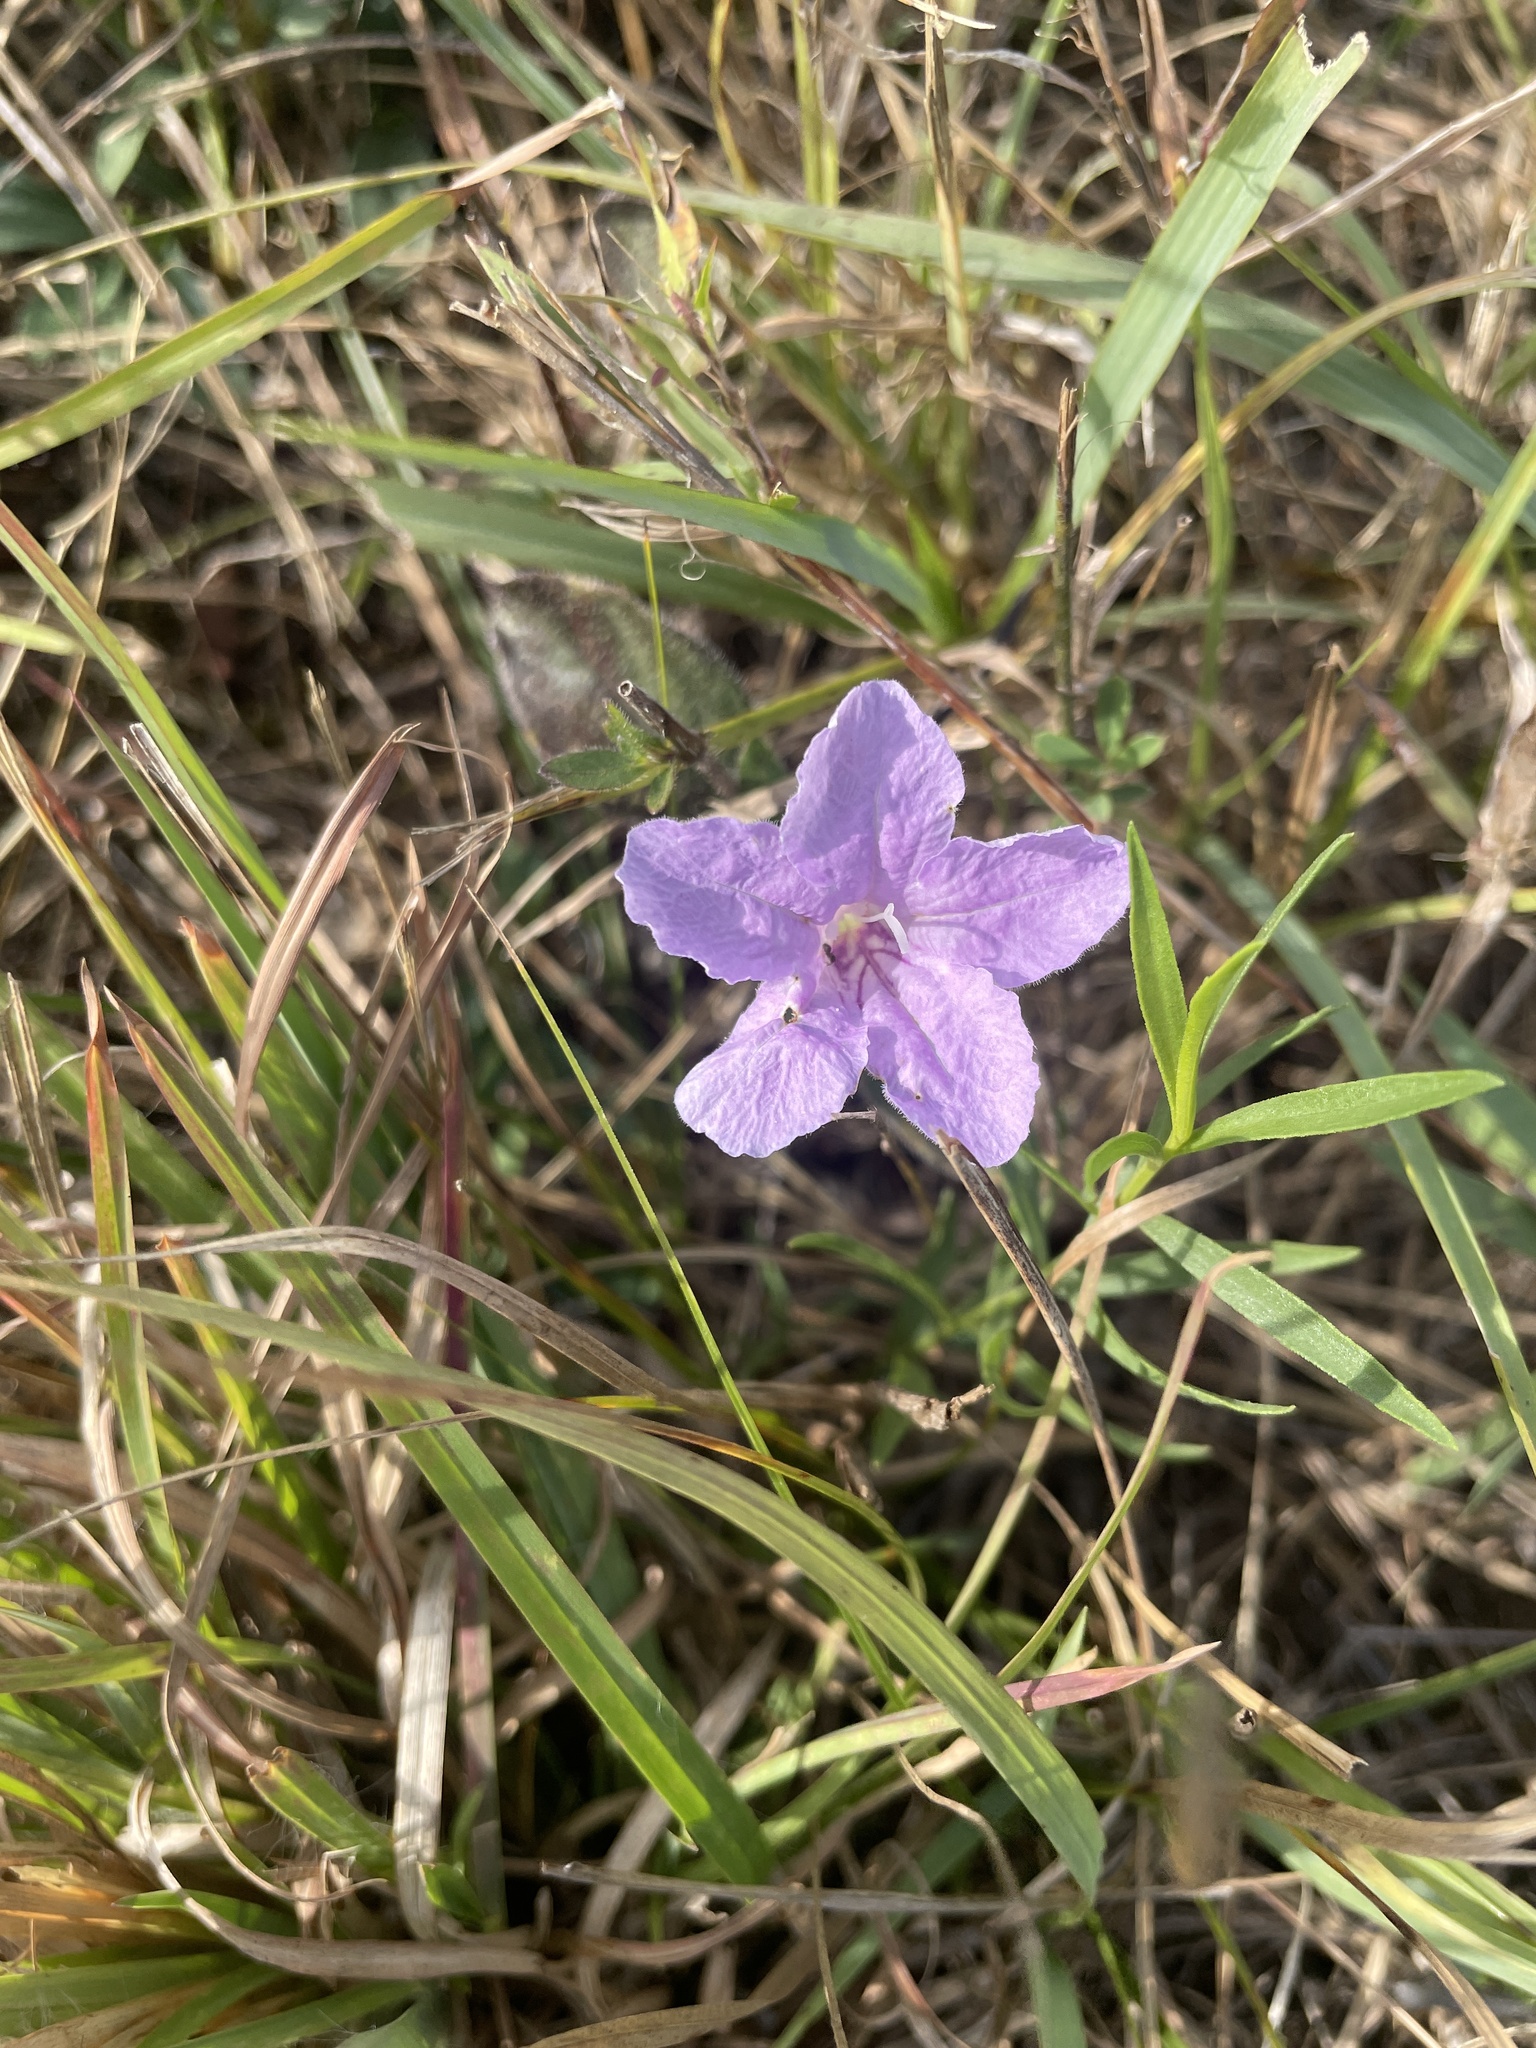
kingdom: Plantae
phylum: Tracheophyta
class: Magnoliopsida
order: Lamiales
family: Acanthaceae
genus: Ruellia
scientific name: Ruellia humilis
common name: Fringe-leaf ruellia
